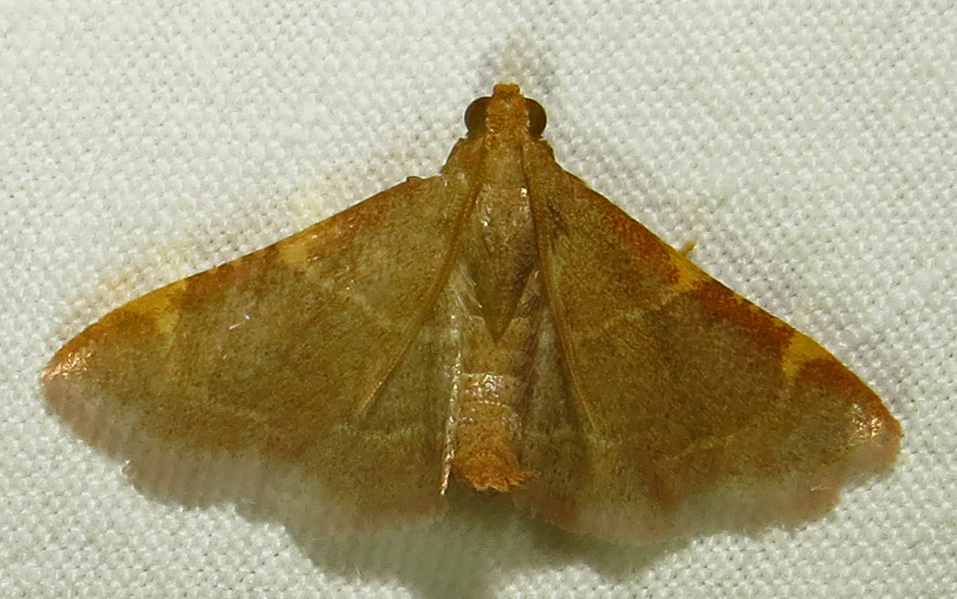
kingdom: Animalia
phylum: Arthropoda
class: Insecta
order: Lepidoptera
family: Pyralidae
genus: Hypsopygia
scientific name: Hypsopygia binodulalis
